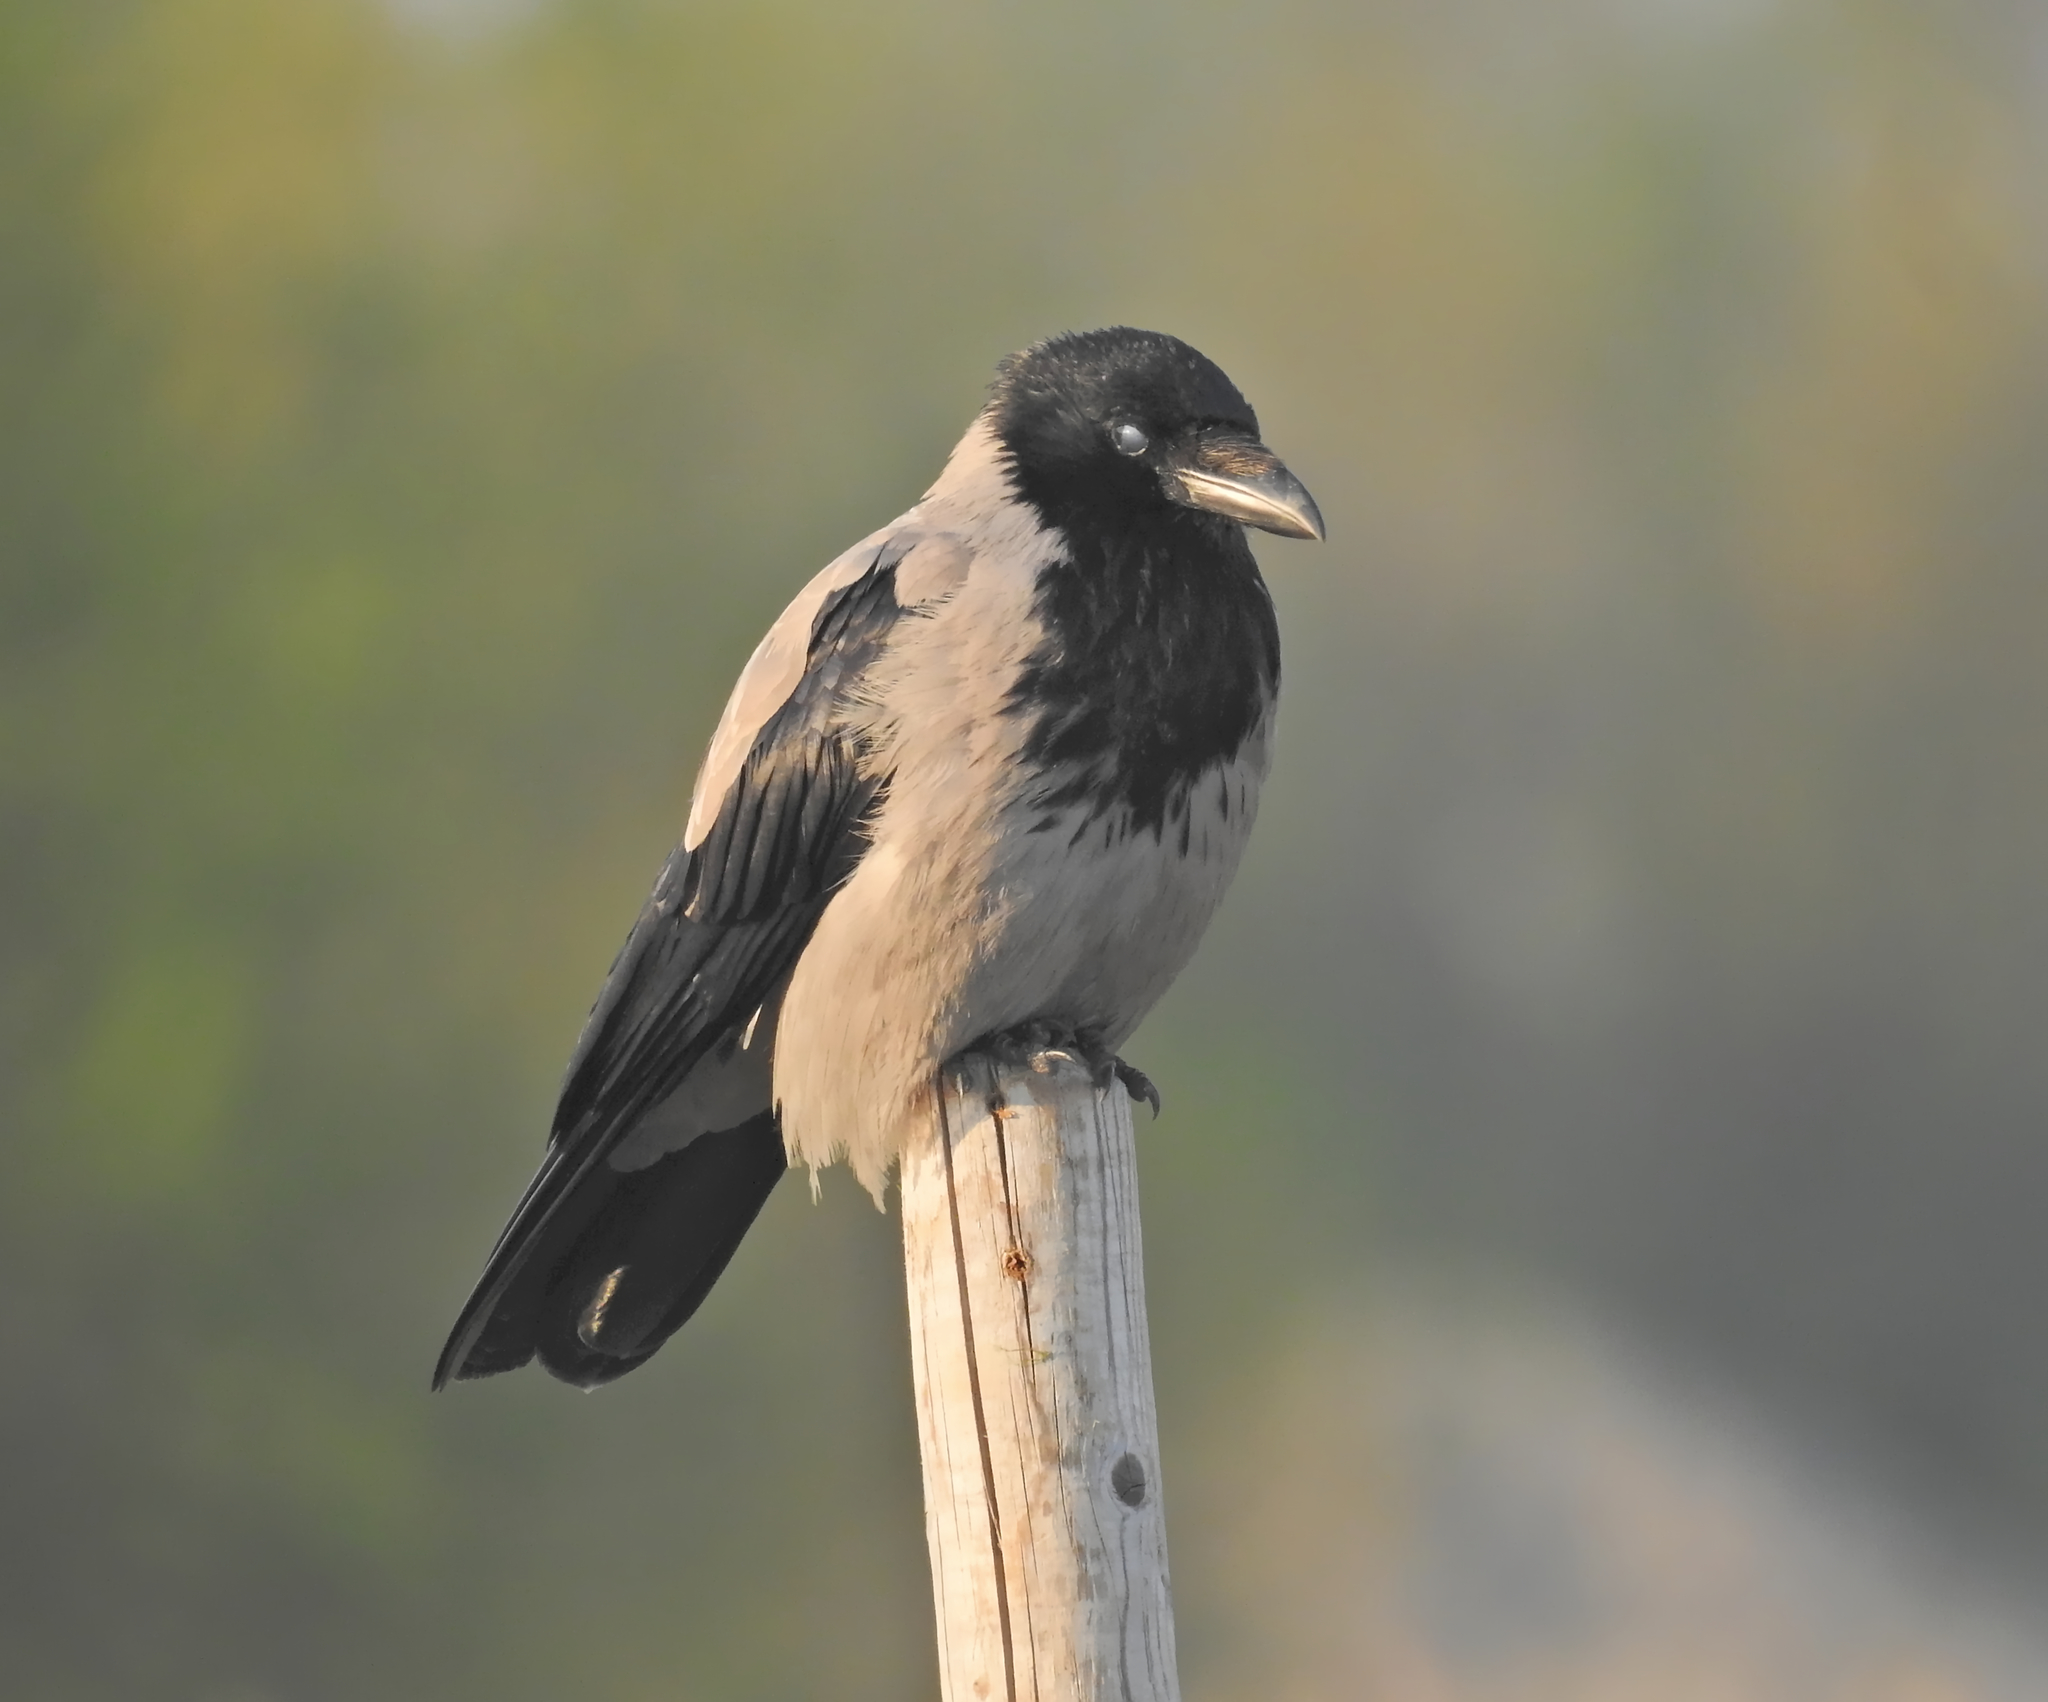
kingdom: Animalia
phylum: Chordata
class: Aves
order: Passeriformes
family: Corvidae
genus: Corvus
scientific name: Corvus cornix
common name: Hooded crow
